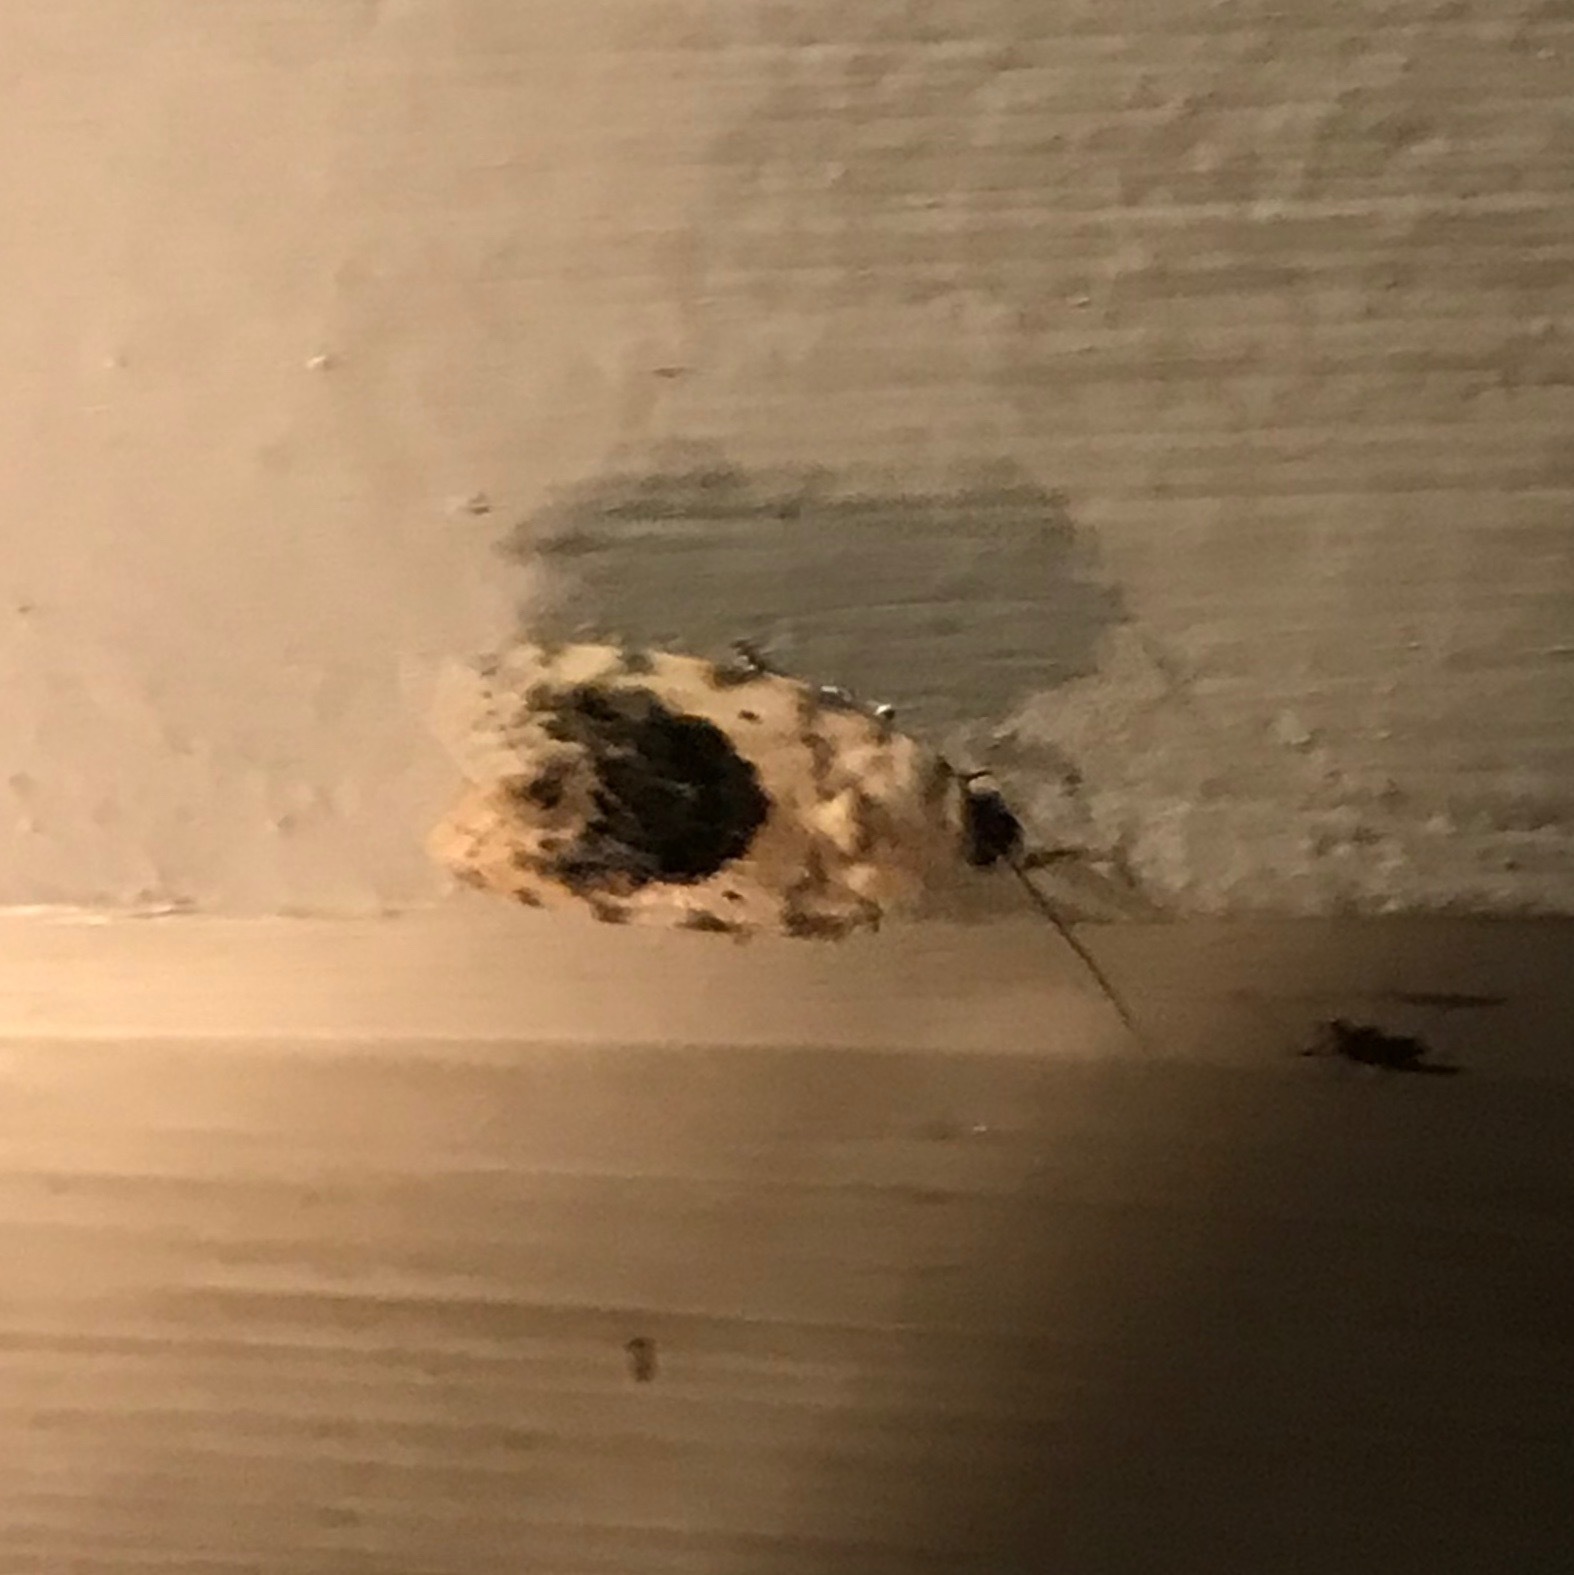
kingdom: Animalia
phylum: Arthropoda
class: Insecta
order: Lepidoptera
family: Noctuidae
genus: Acontia
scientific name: Acontia erastrioides
